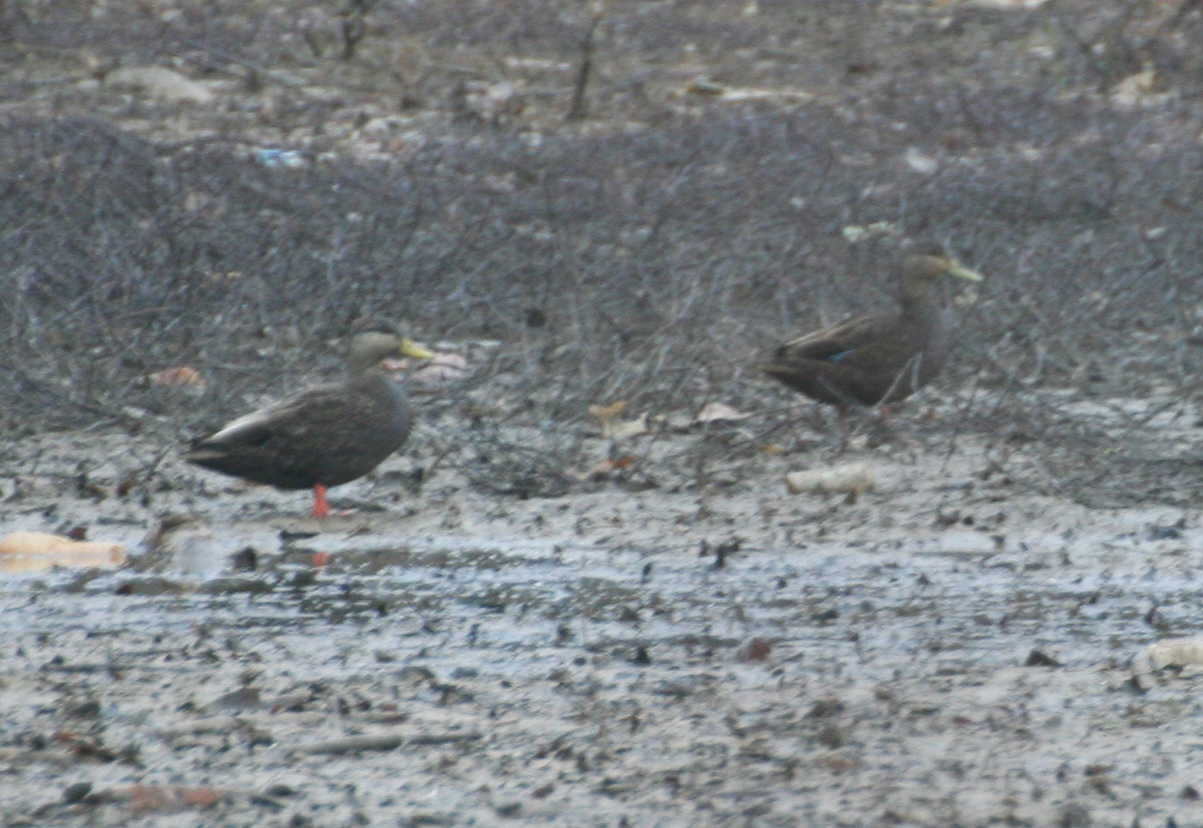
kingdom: Animalia
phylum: Chordata
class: Aves
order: Anseriformes
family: Anatidae
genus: Anas
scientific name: Anas rubripes
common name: American black duck
